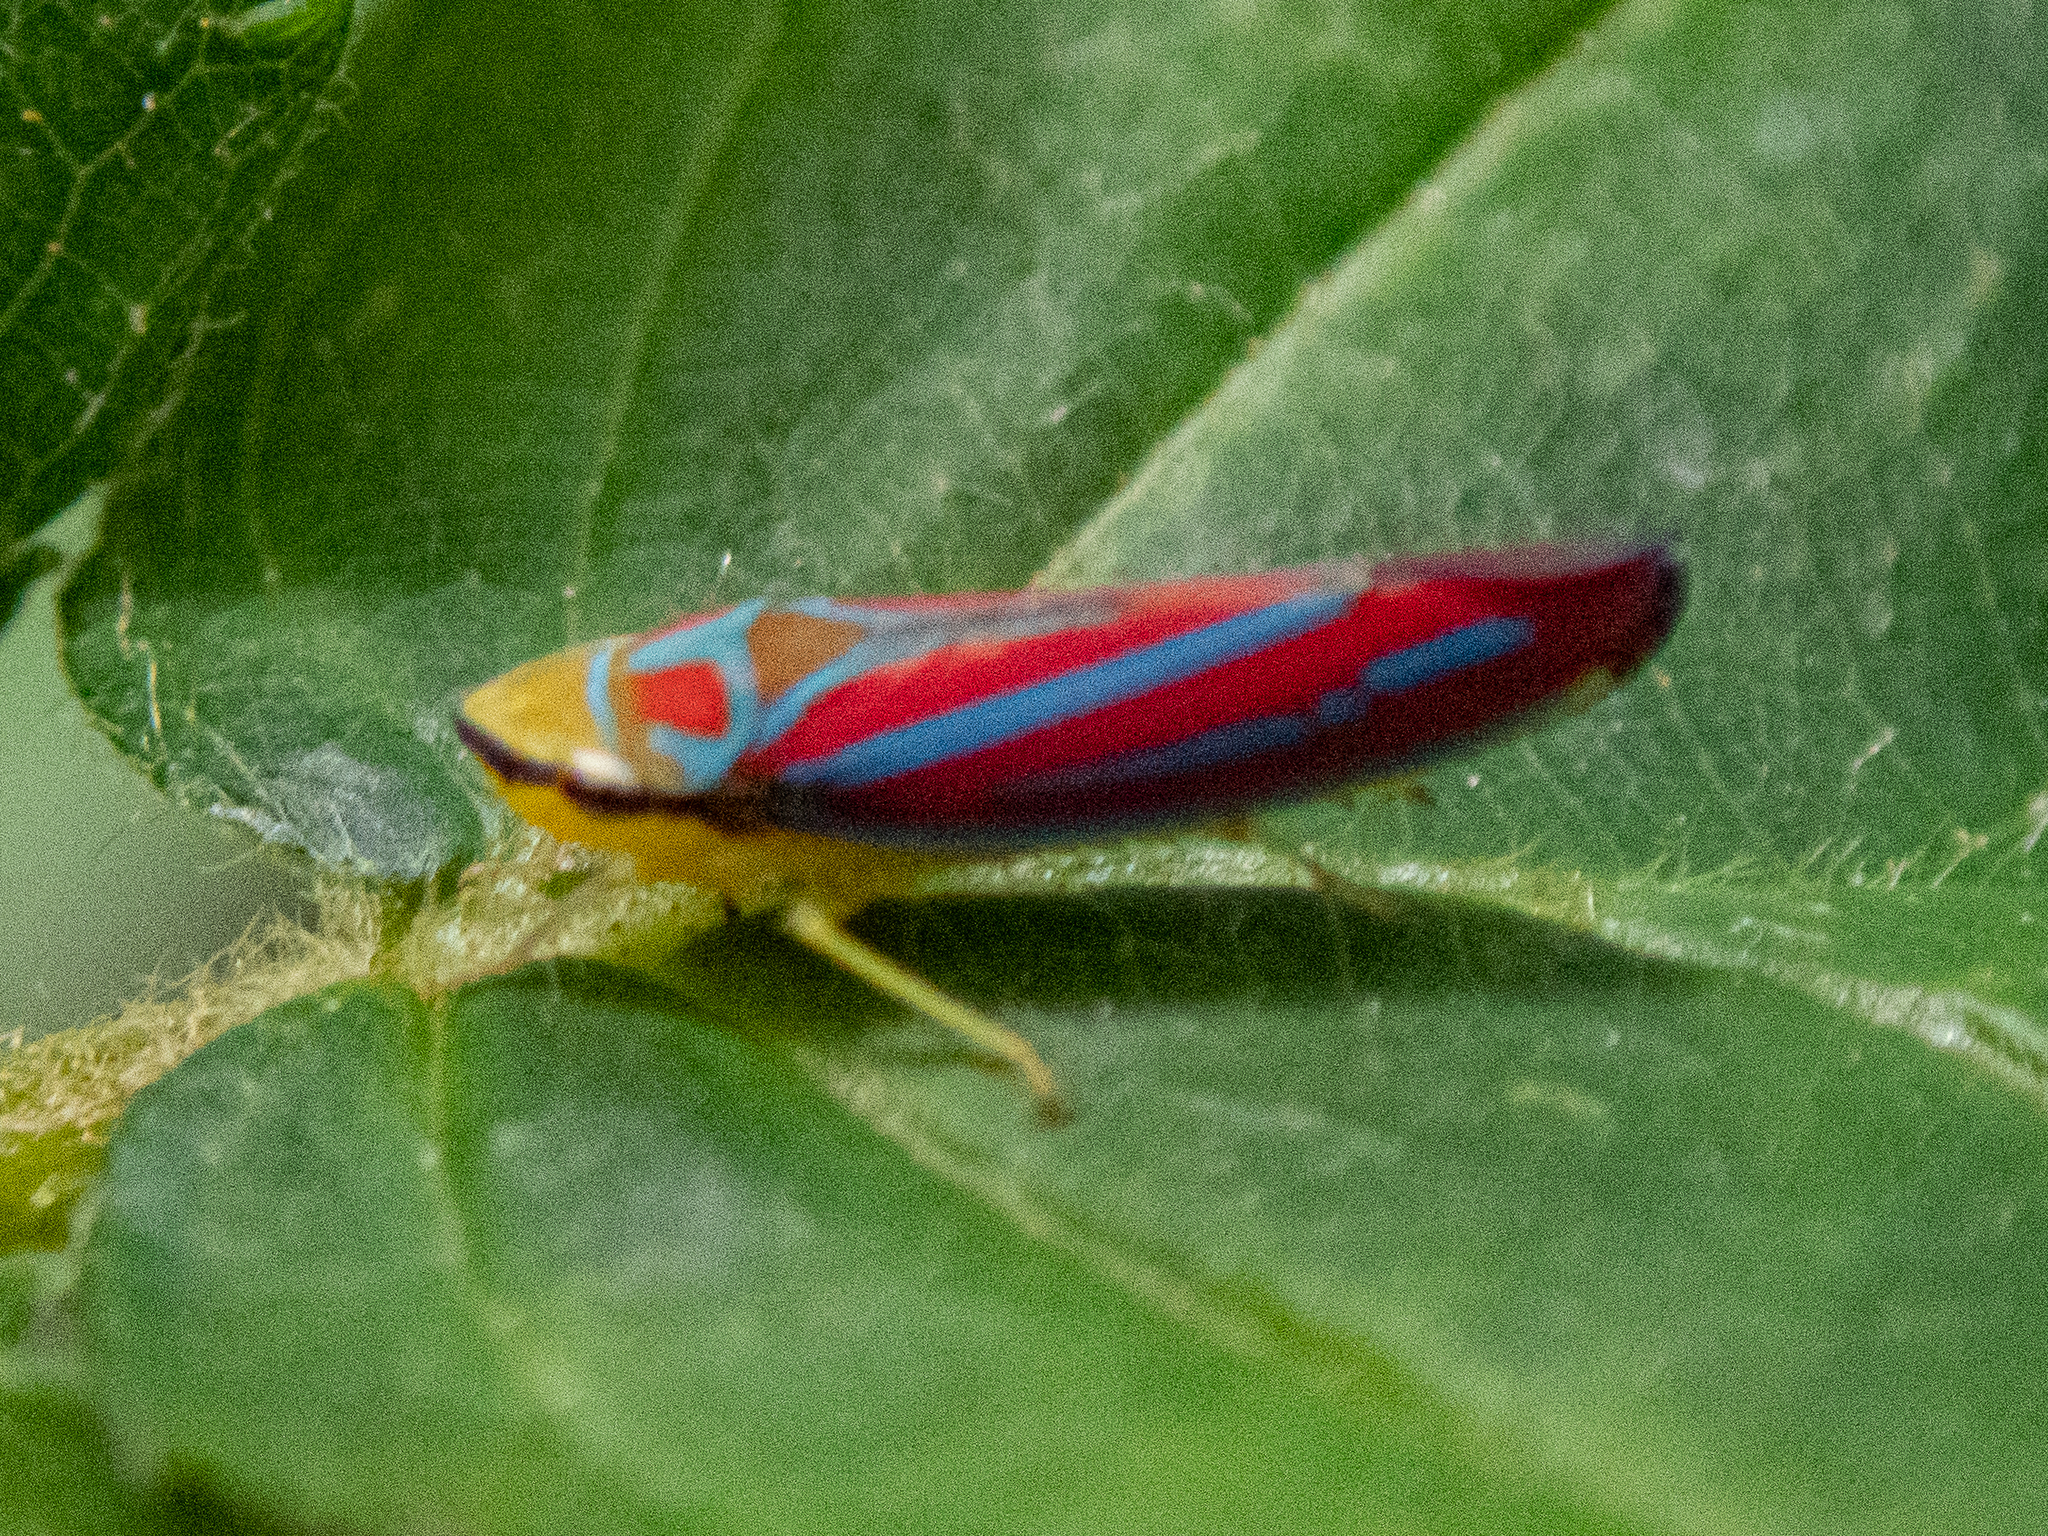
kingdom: Animalia
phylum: Arthropoda
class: Insecta
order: Hemiptera
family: Cicadellidae
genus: Graphocephala
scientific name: Graphocephala coccinea
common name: Candy-striped leafhopper
